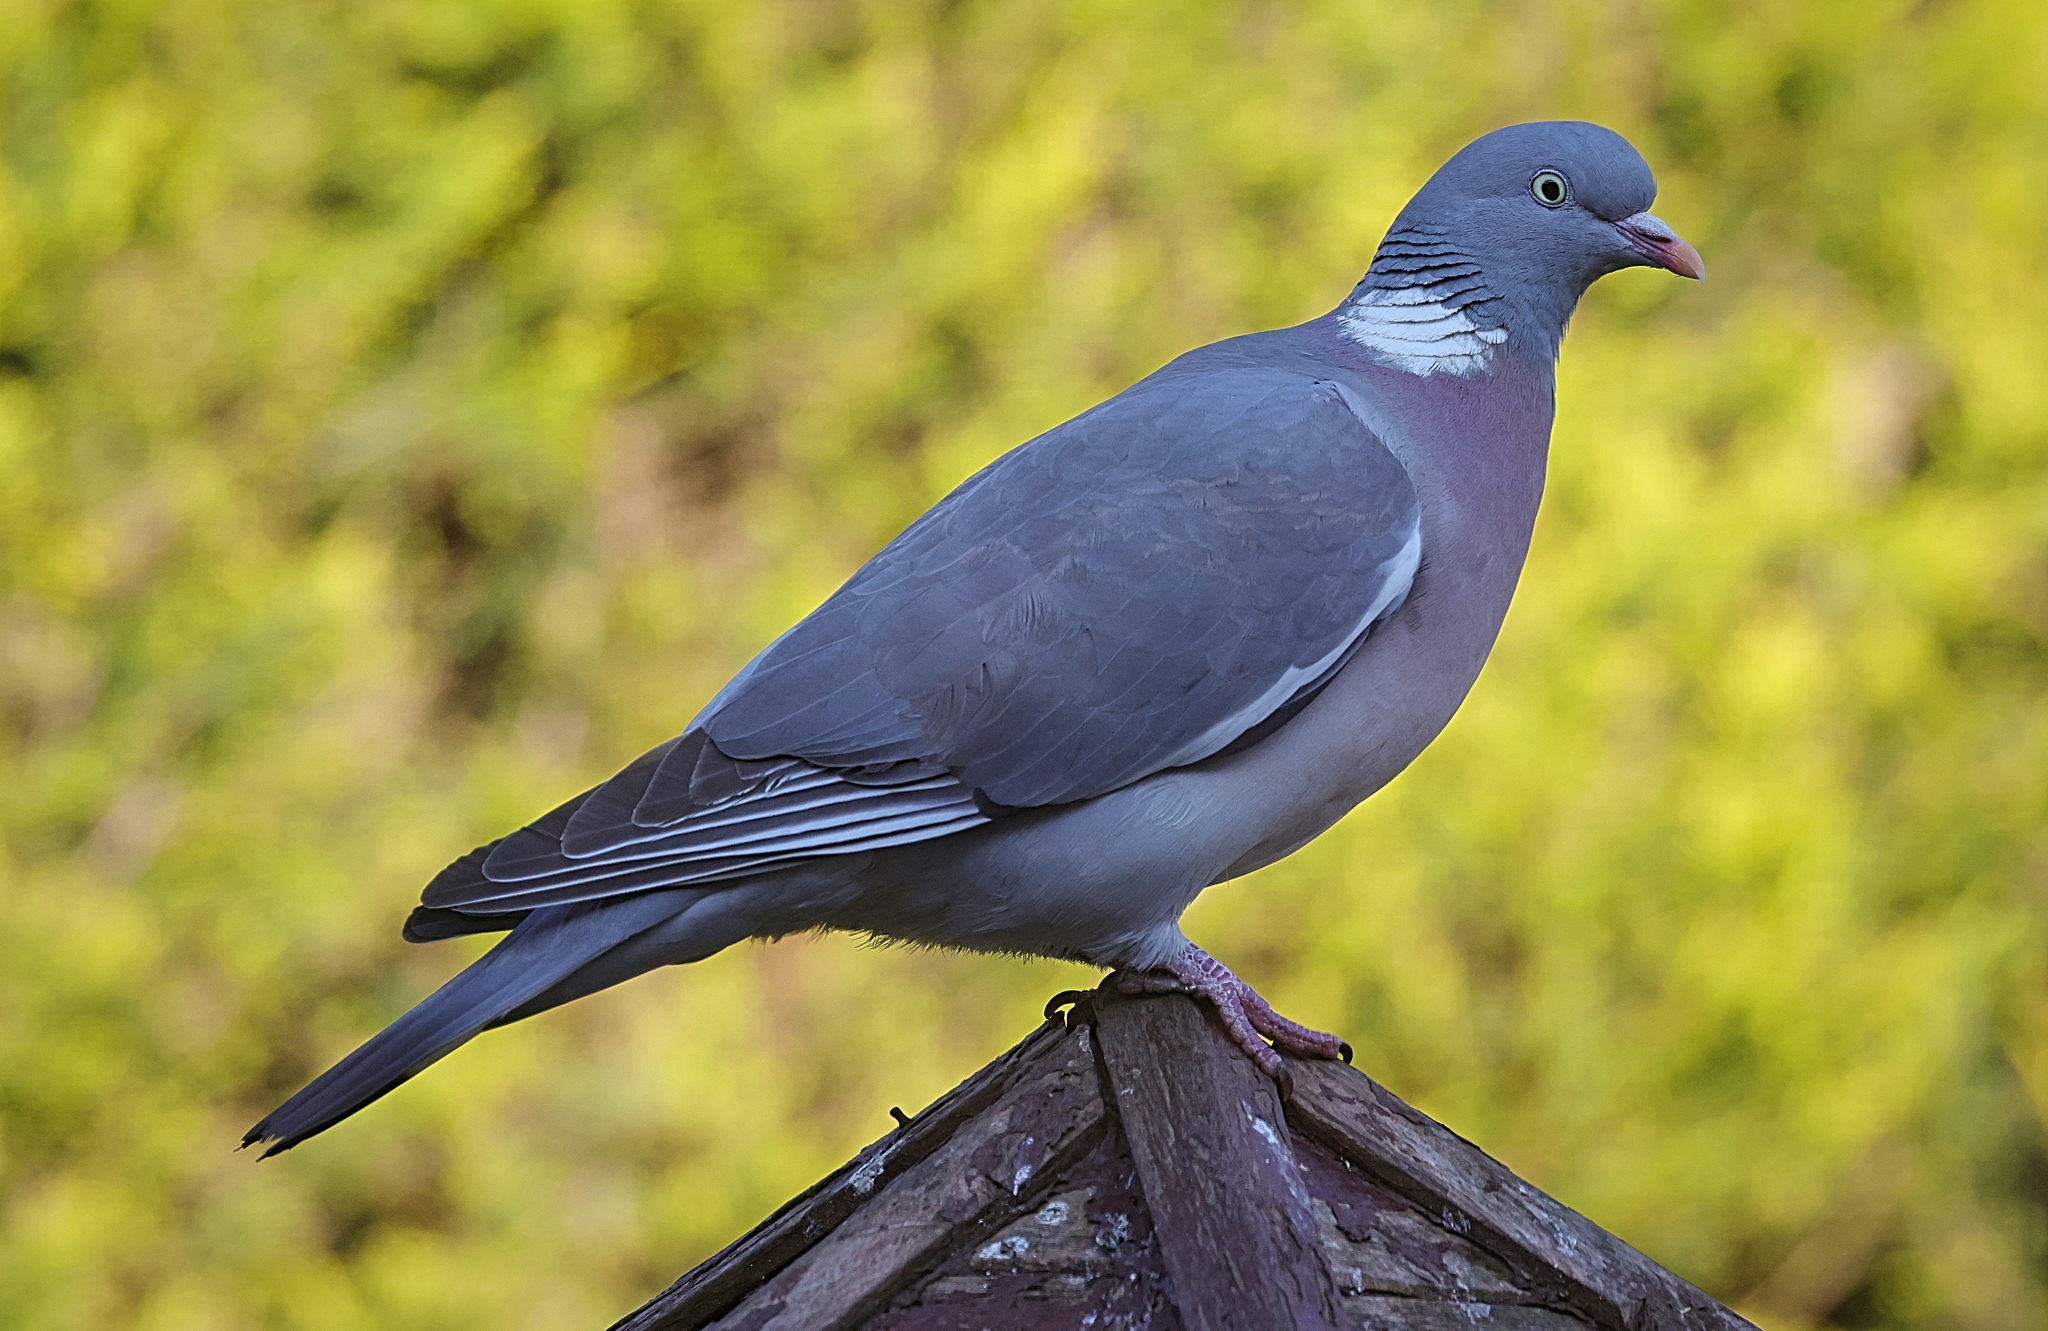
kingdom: Animalia
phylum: Chordata
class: Aves
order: Columbiformes
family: Columbidae
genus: Columba
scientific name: Columba palumbus
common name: Common wood pigeon
